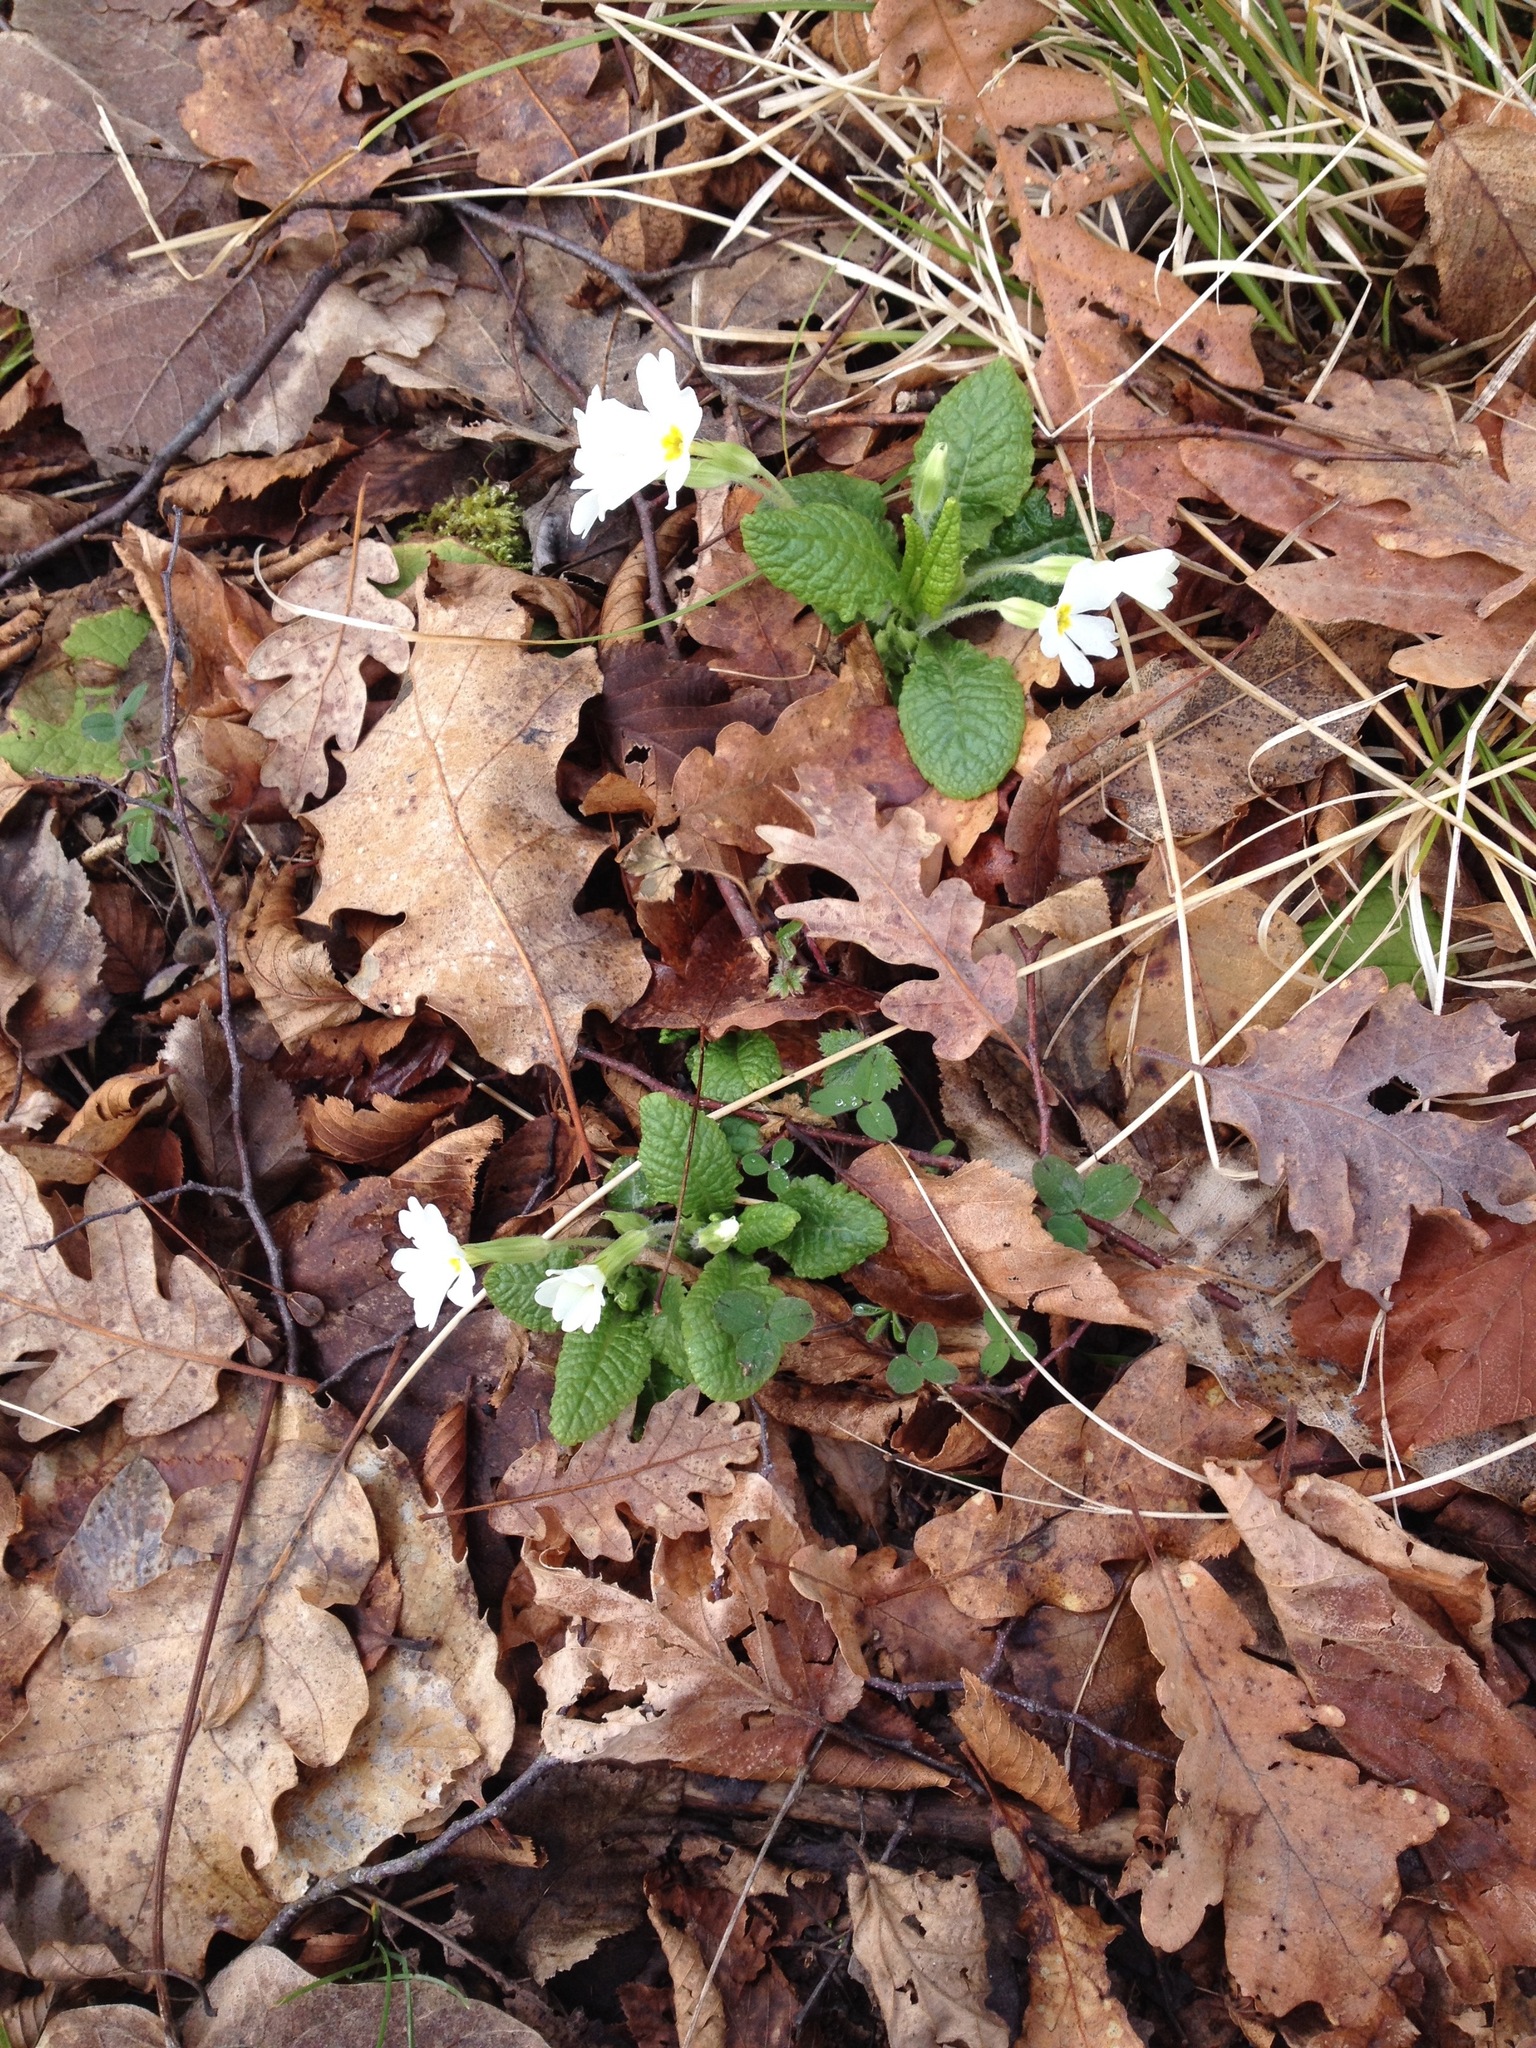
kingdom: Plantae
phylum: Tracheophyta
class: Magnoliopsida
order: Ericales
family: Primulaceae
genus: Primula
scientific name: Primula vulgaris
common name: Primrose
